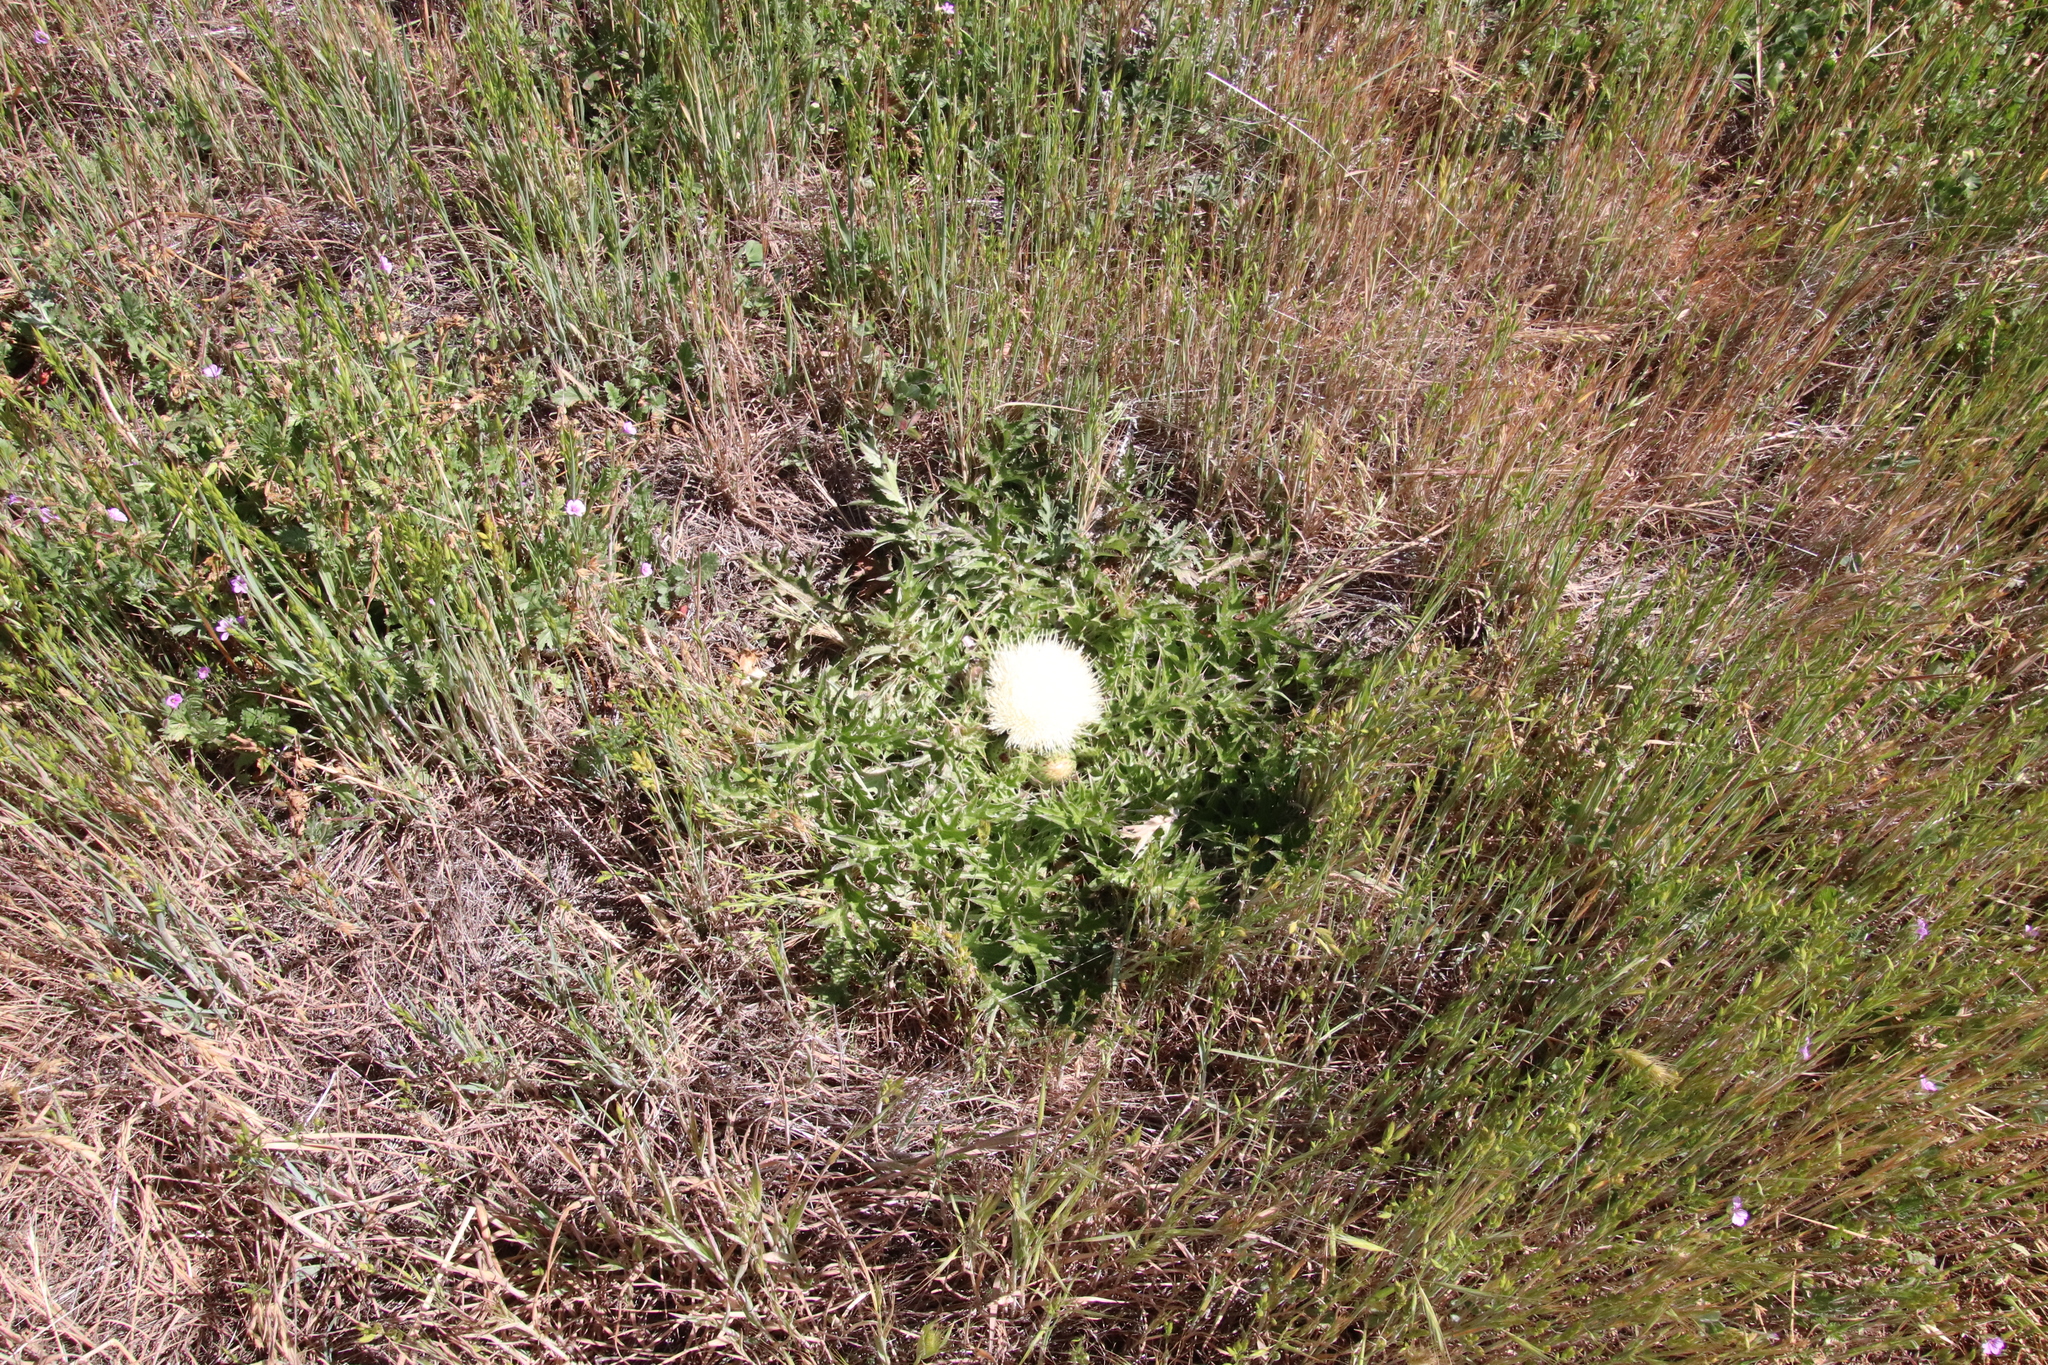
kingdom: Plantae
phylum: Tracheophyta
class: Magnoliopsida
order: Asterales
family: Asteraceae
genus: Cirsium
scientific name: Cirsium scariosum
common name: Meadow thistle
